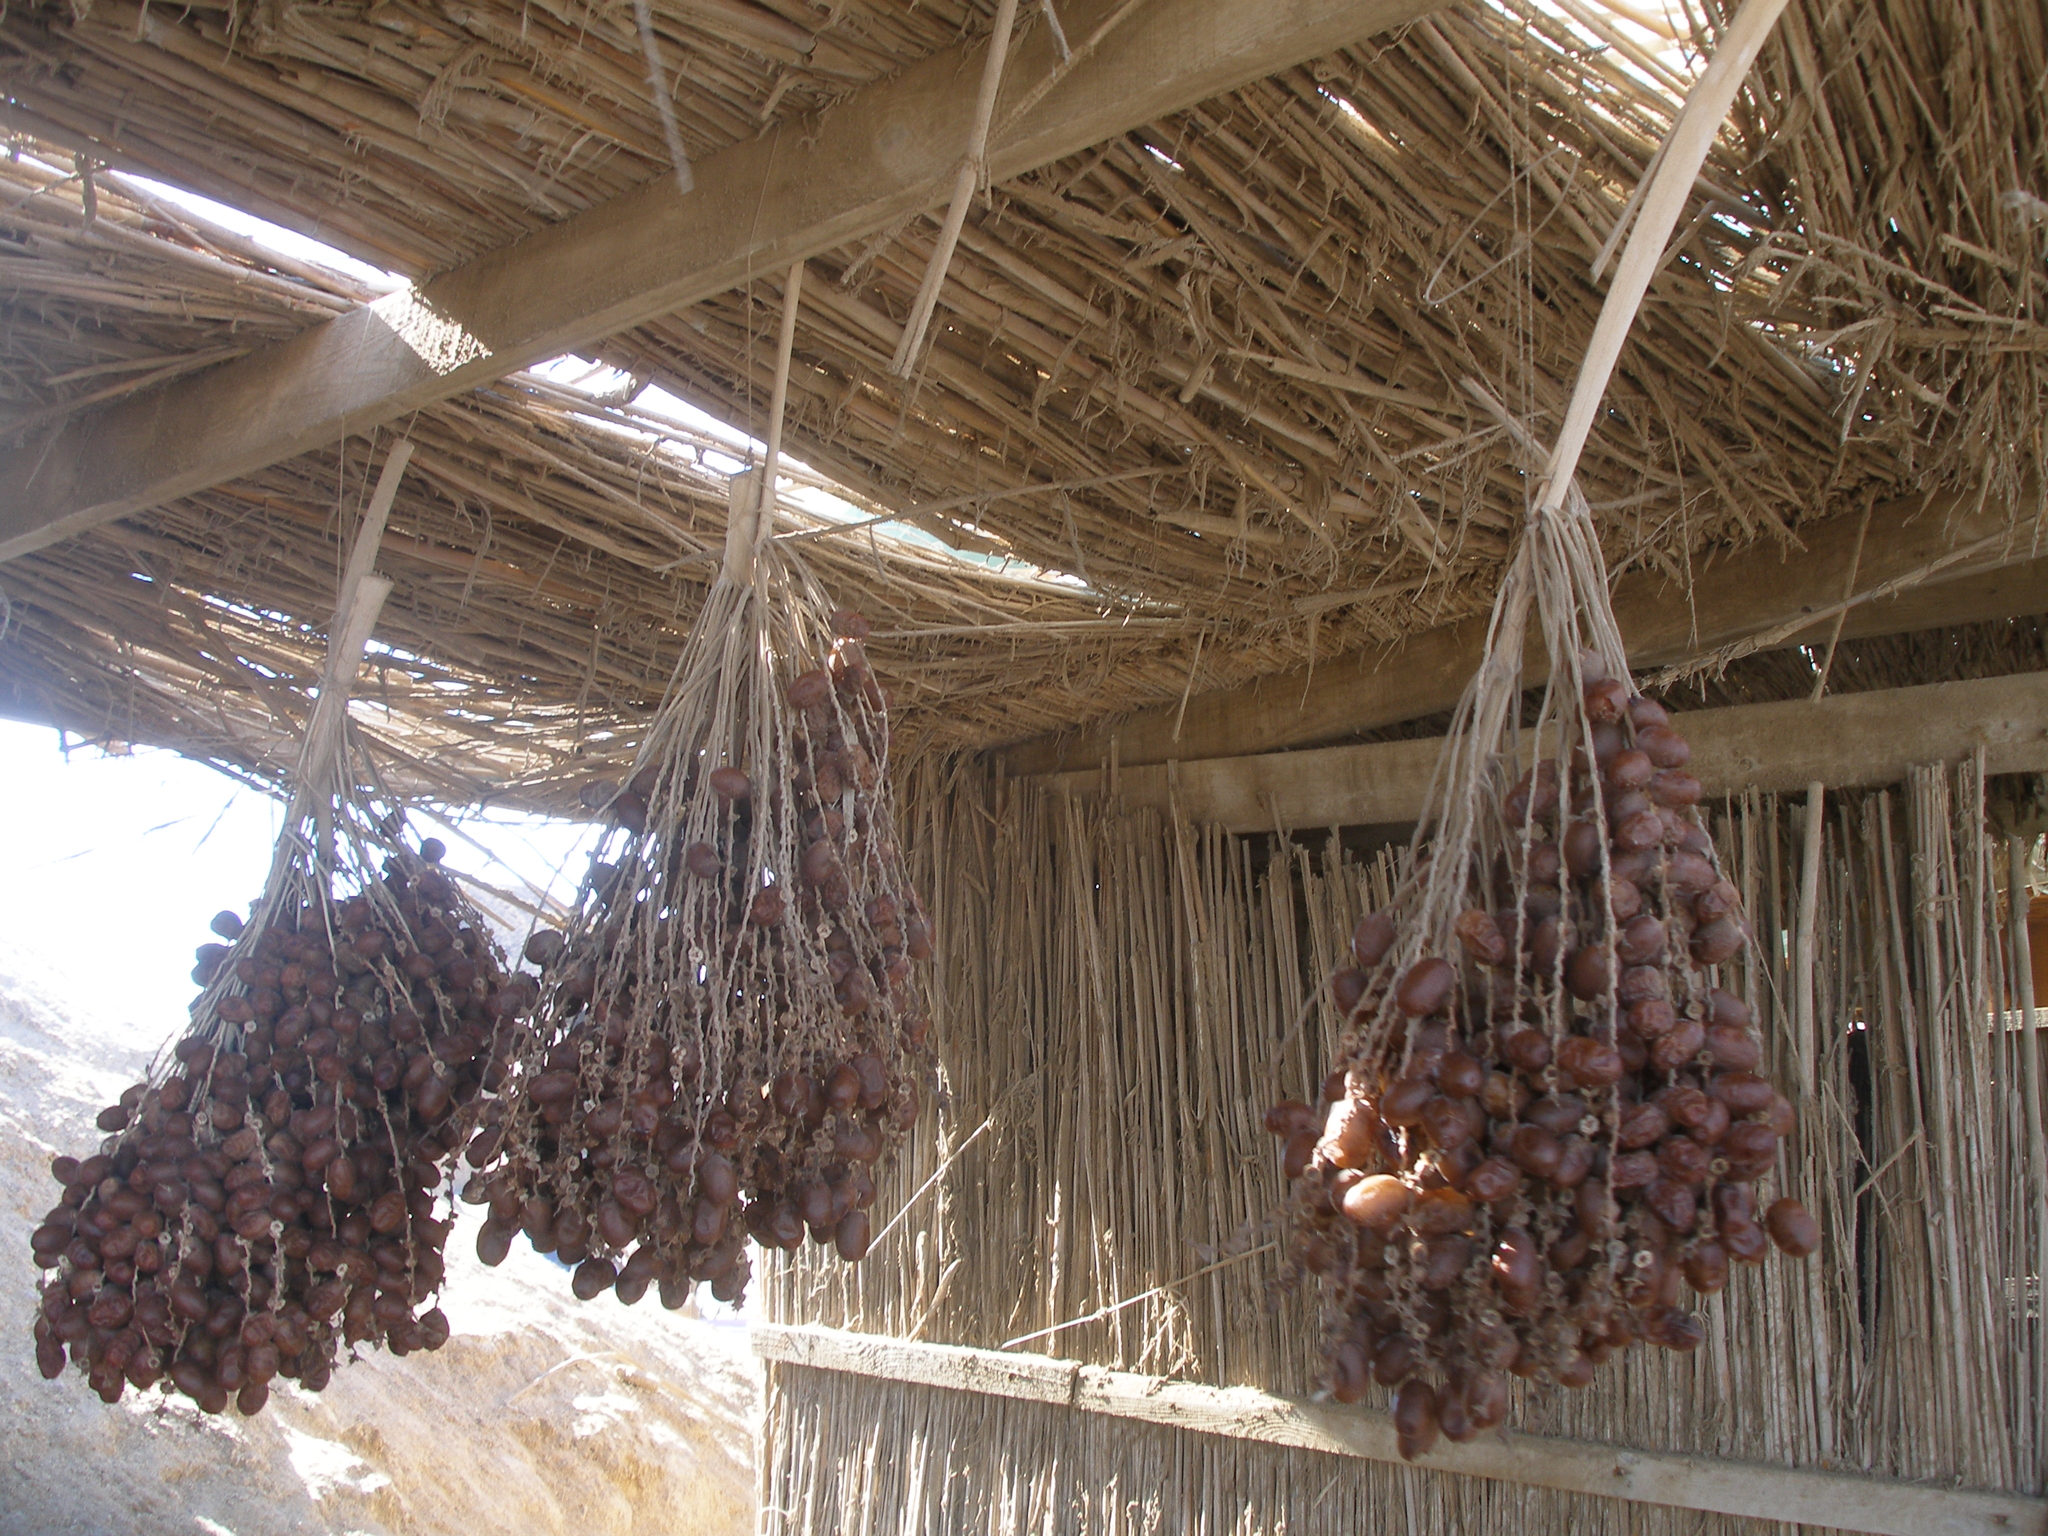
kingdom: Plantae
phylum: Tracheophyta
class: Liliopsida
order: Arecales
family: Arecaceae
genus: Phoenix
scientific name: Phoenix dactylifera
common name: Date palm
